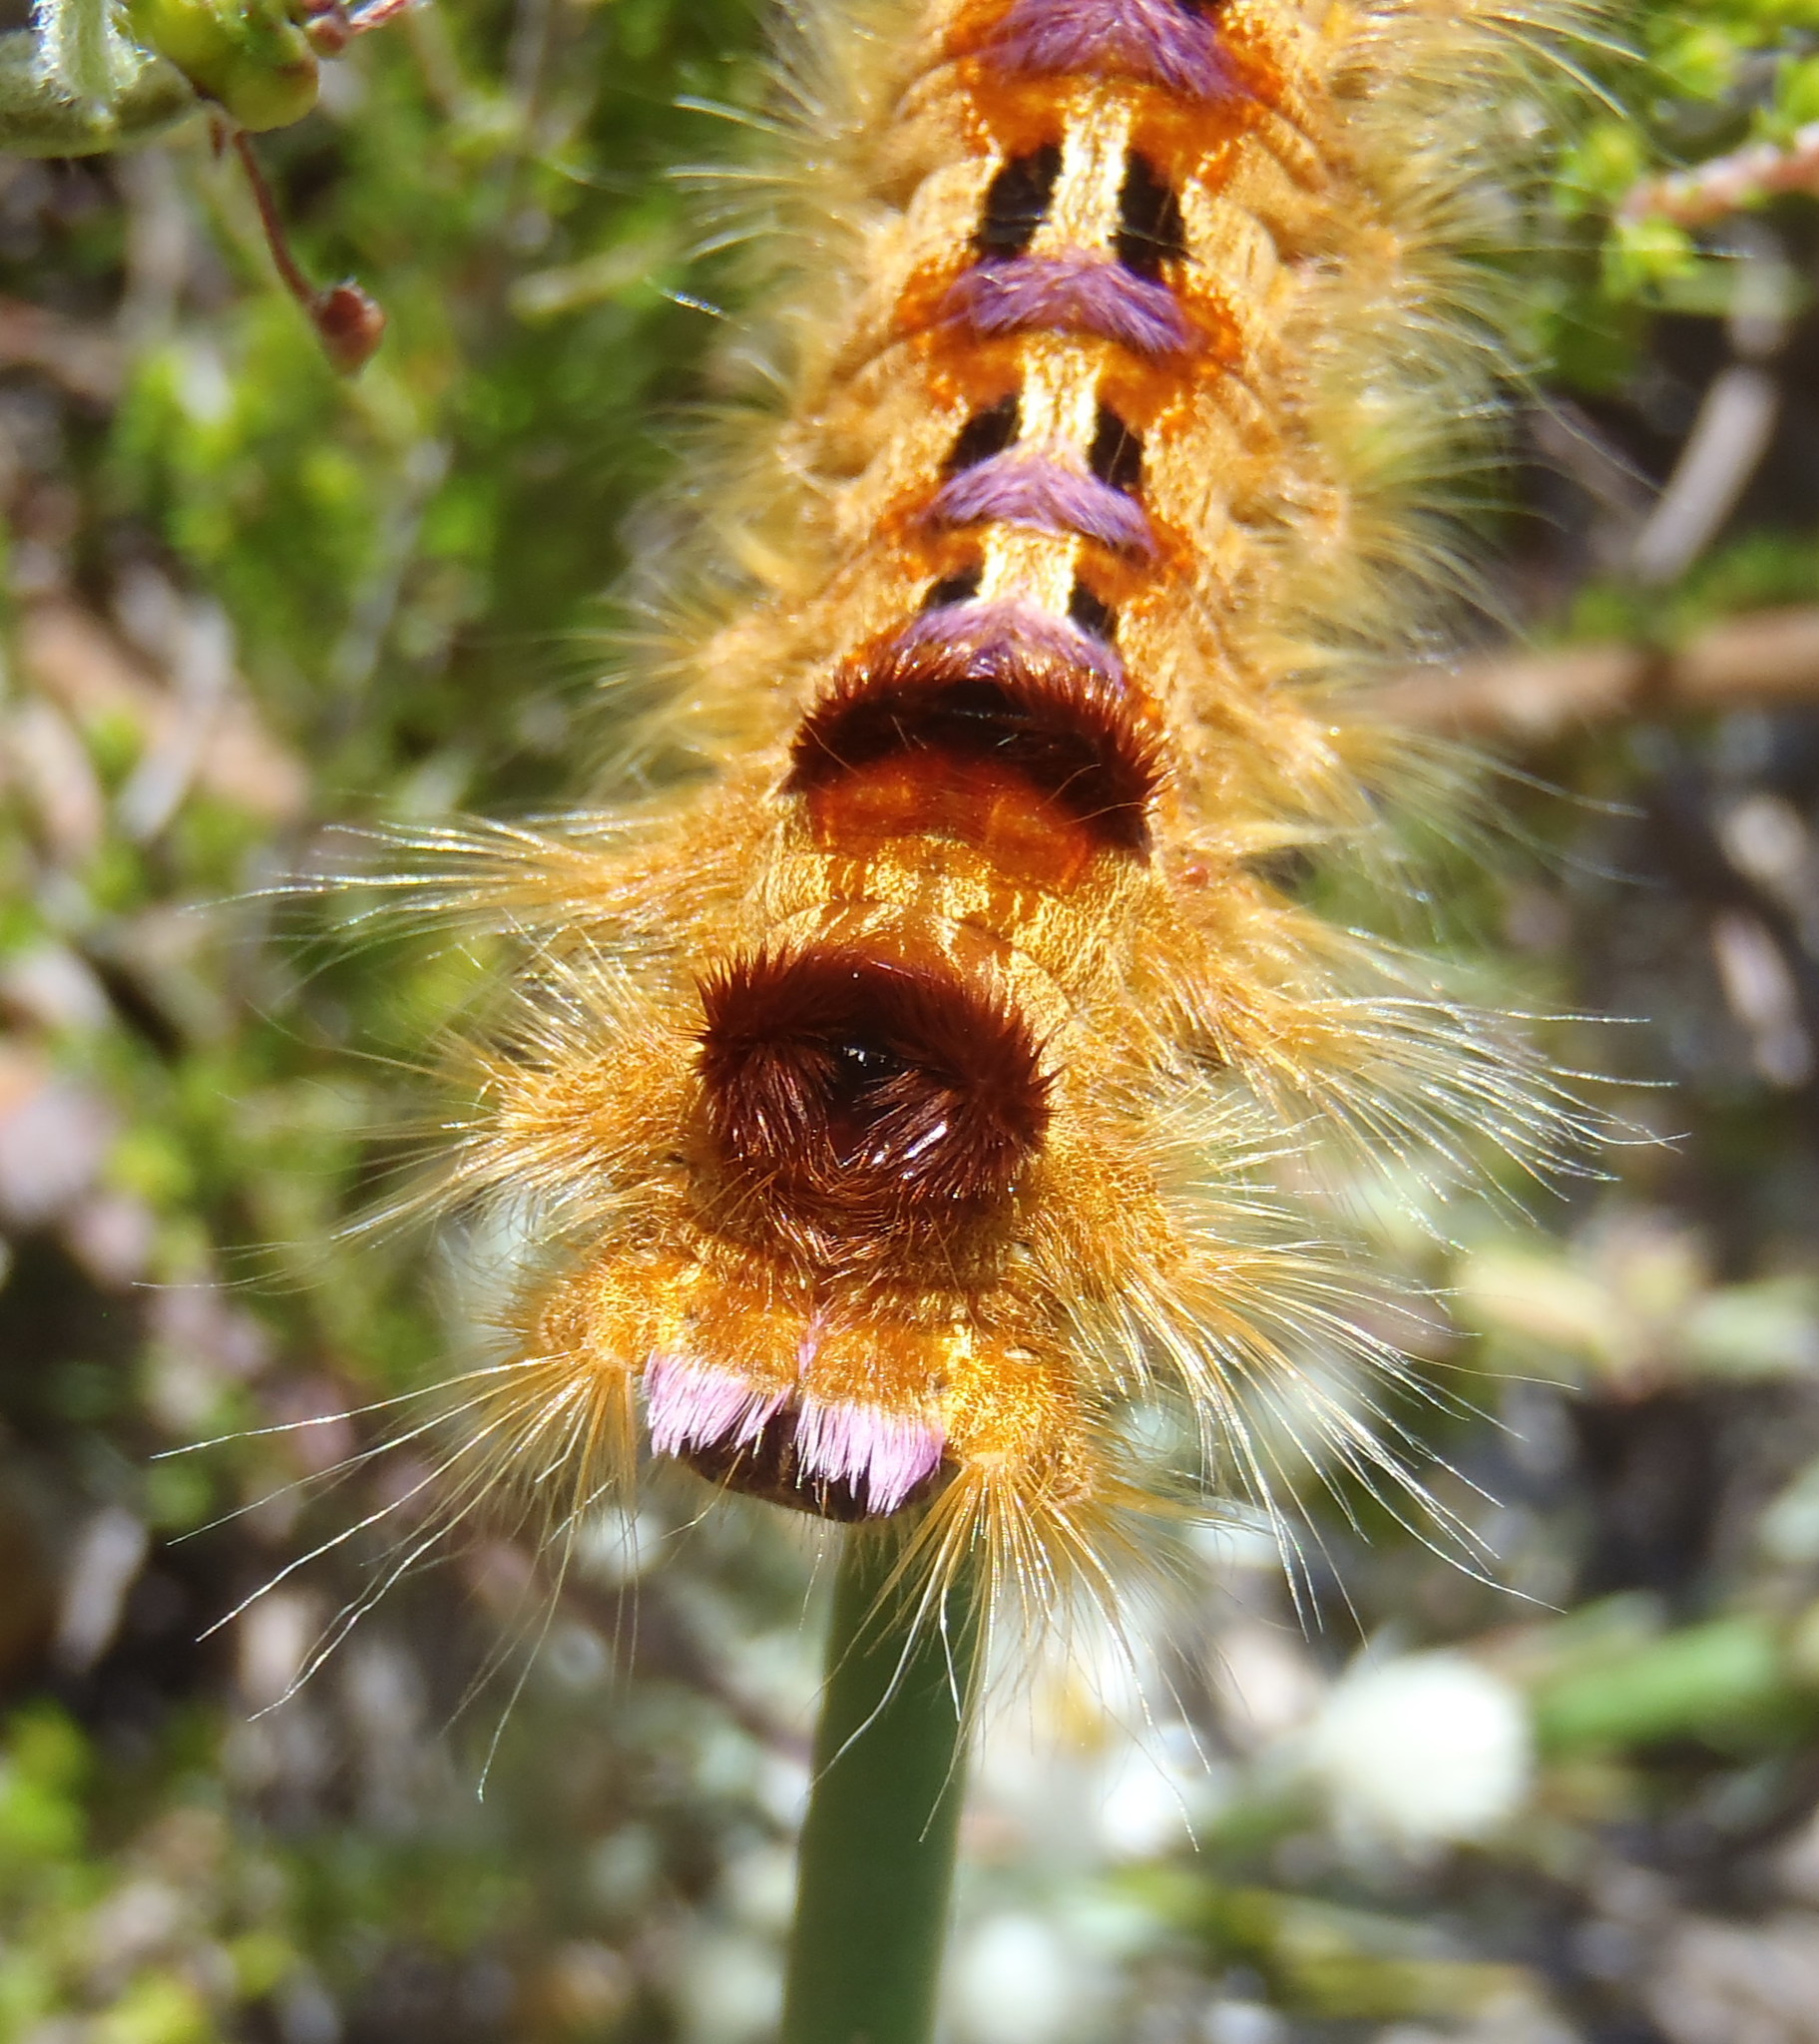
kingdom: Animalia
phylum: Arthropoda
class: Insecta
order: Lepidoptera
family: Lasiocampidae
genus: Eutricha
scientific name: Eutricha bifascia
